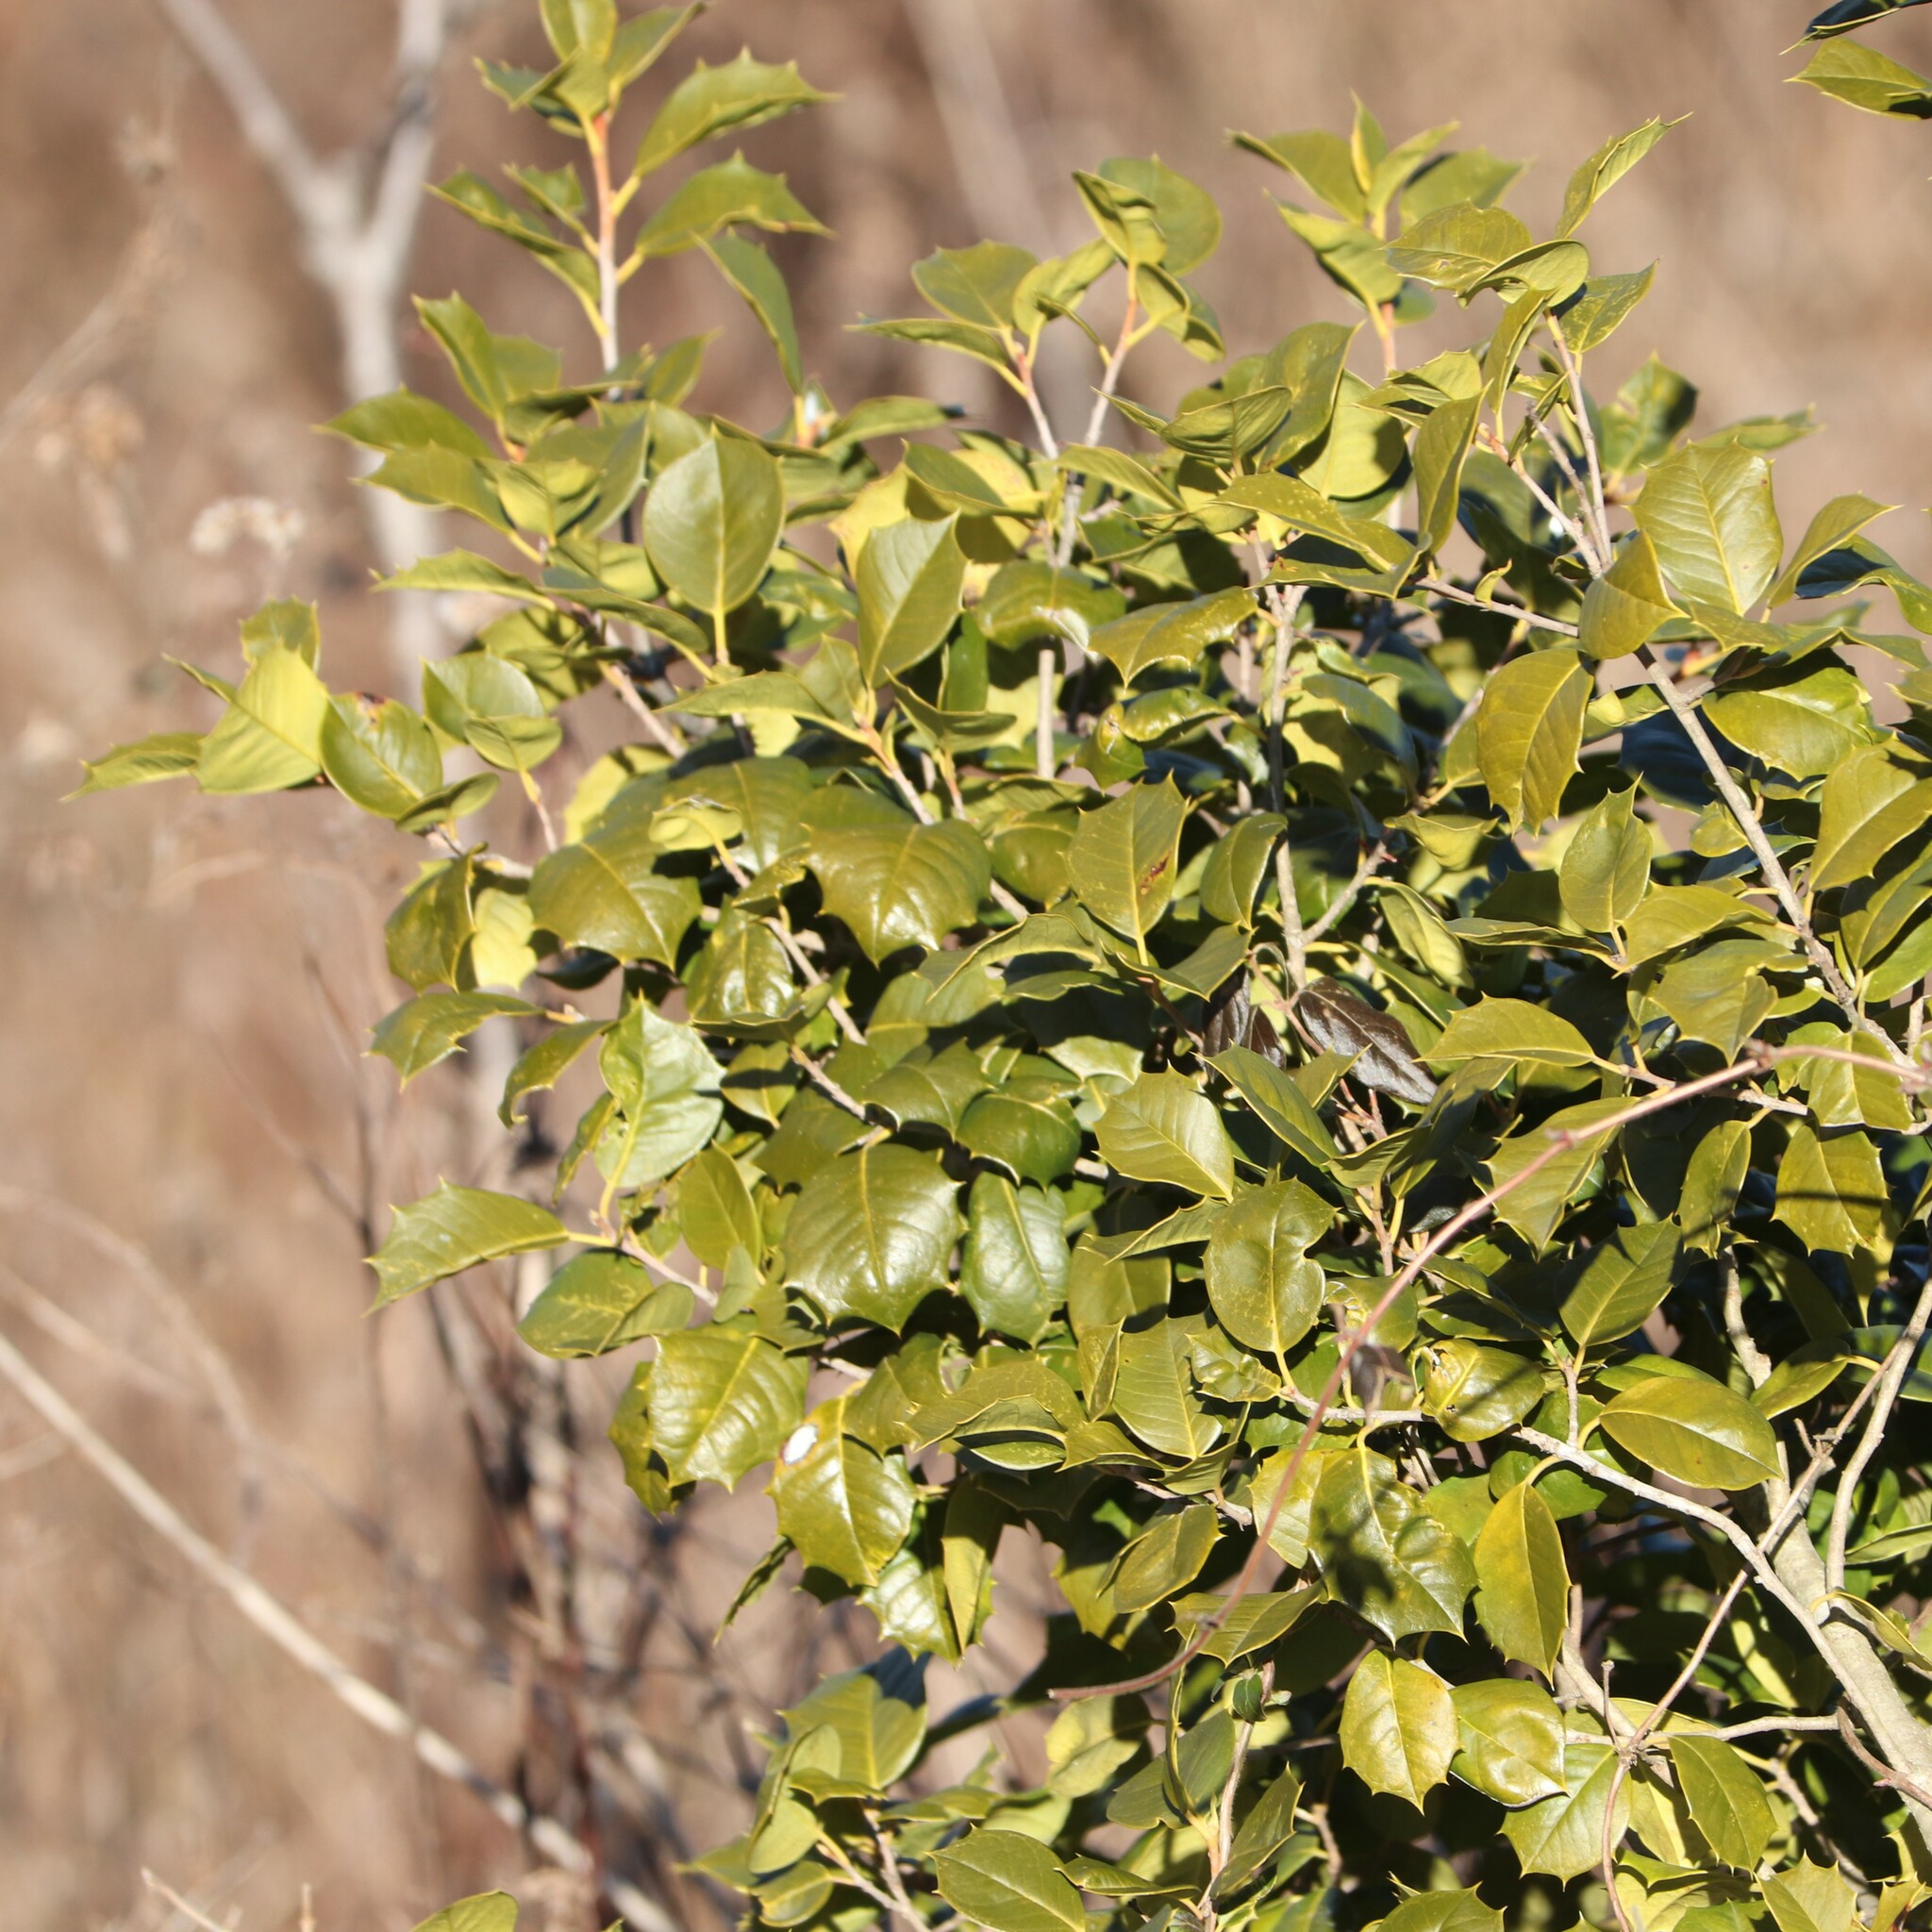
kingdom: Plantae
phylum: Tracheophyta
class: Magnoliopsida
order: Aquifoliales
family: Aquifoliaceae
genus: Ilex
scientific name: Ilex opaca
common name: American holly
